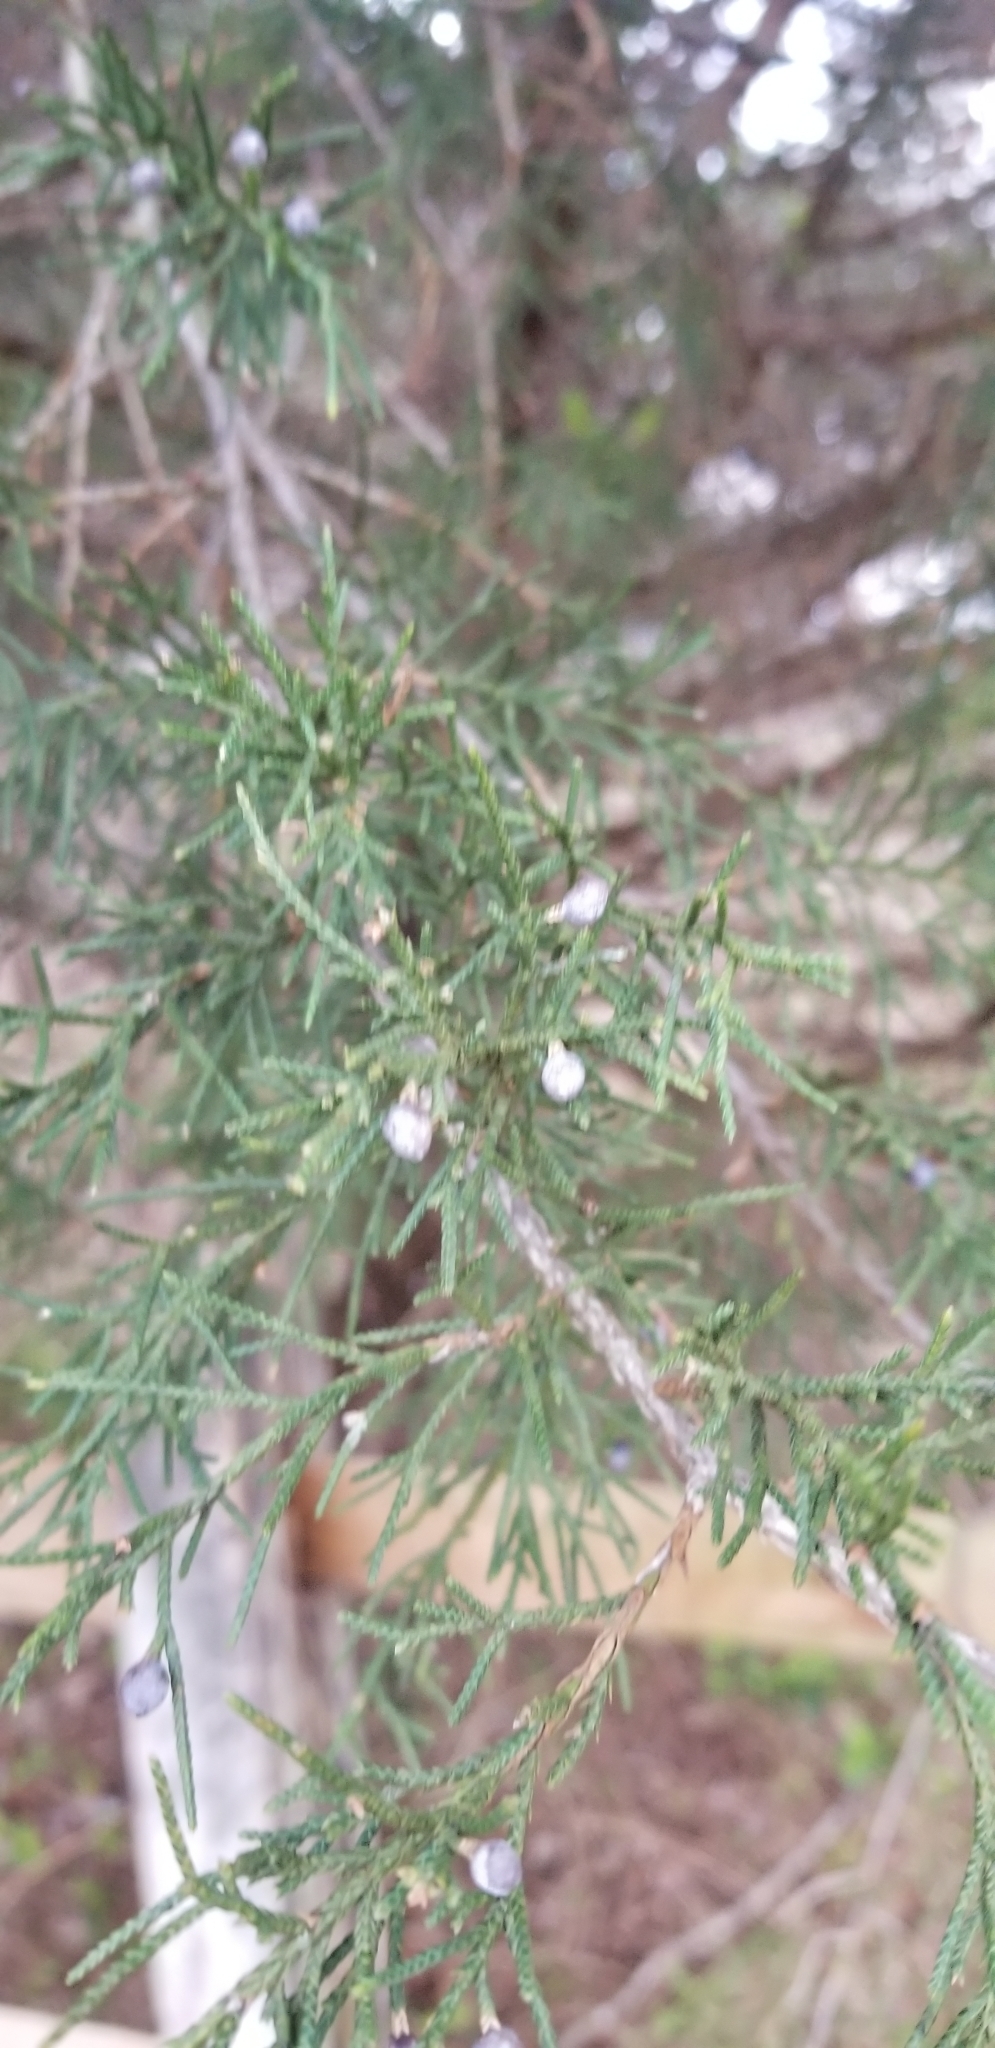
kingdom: Fungi
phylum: Basidiomycota
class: Pucciniomycetes
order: Pucciniales
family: Gymnosporangiaceae
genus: Gymnosporangium
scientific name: Gymnosporangium juniperi-virginianae
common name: Juniper-apple rust
